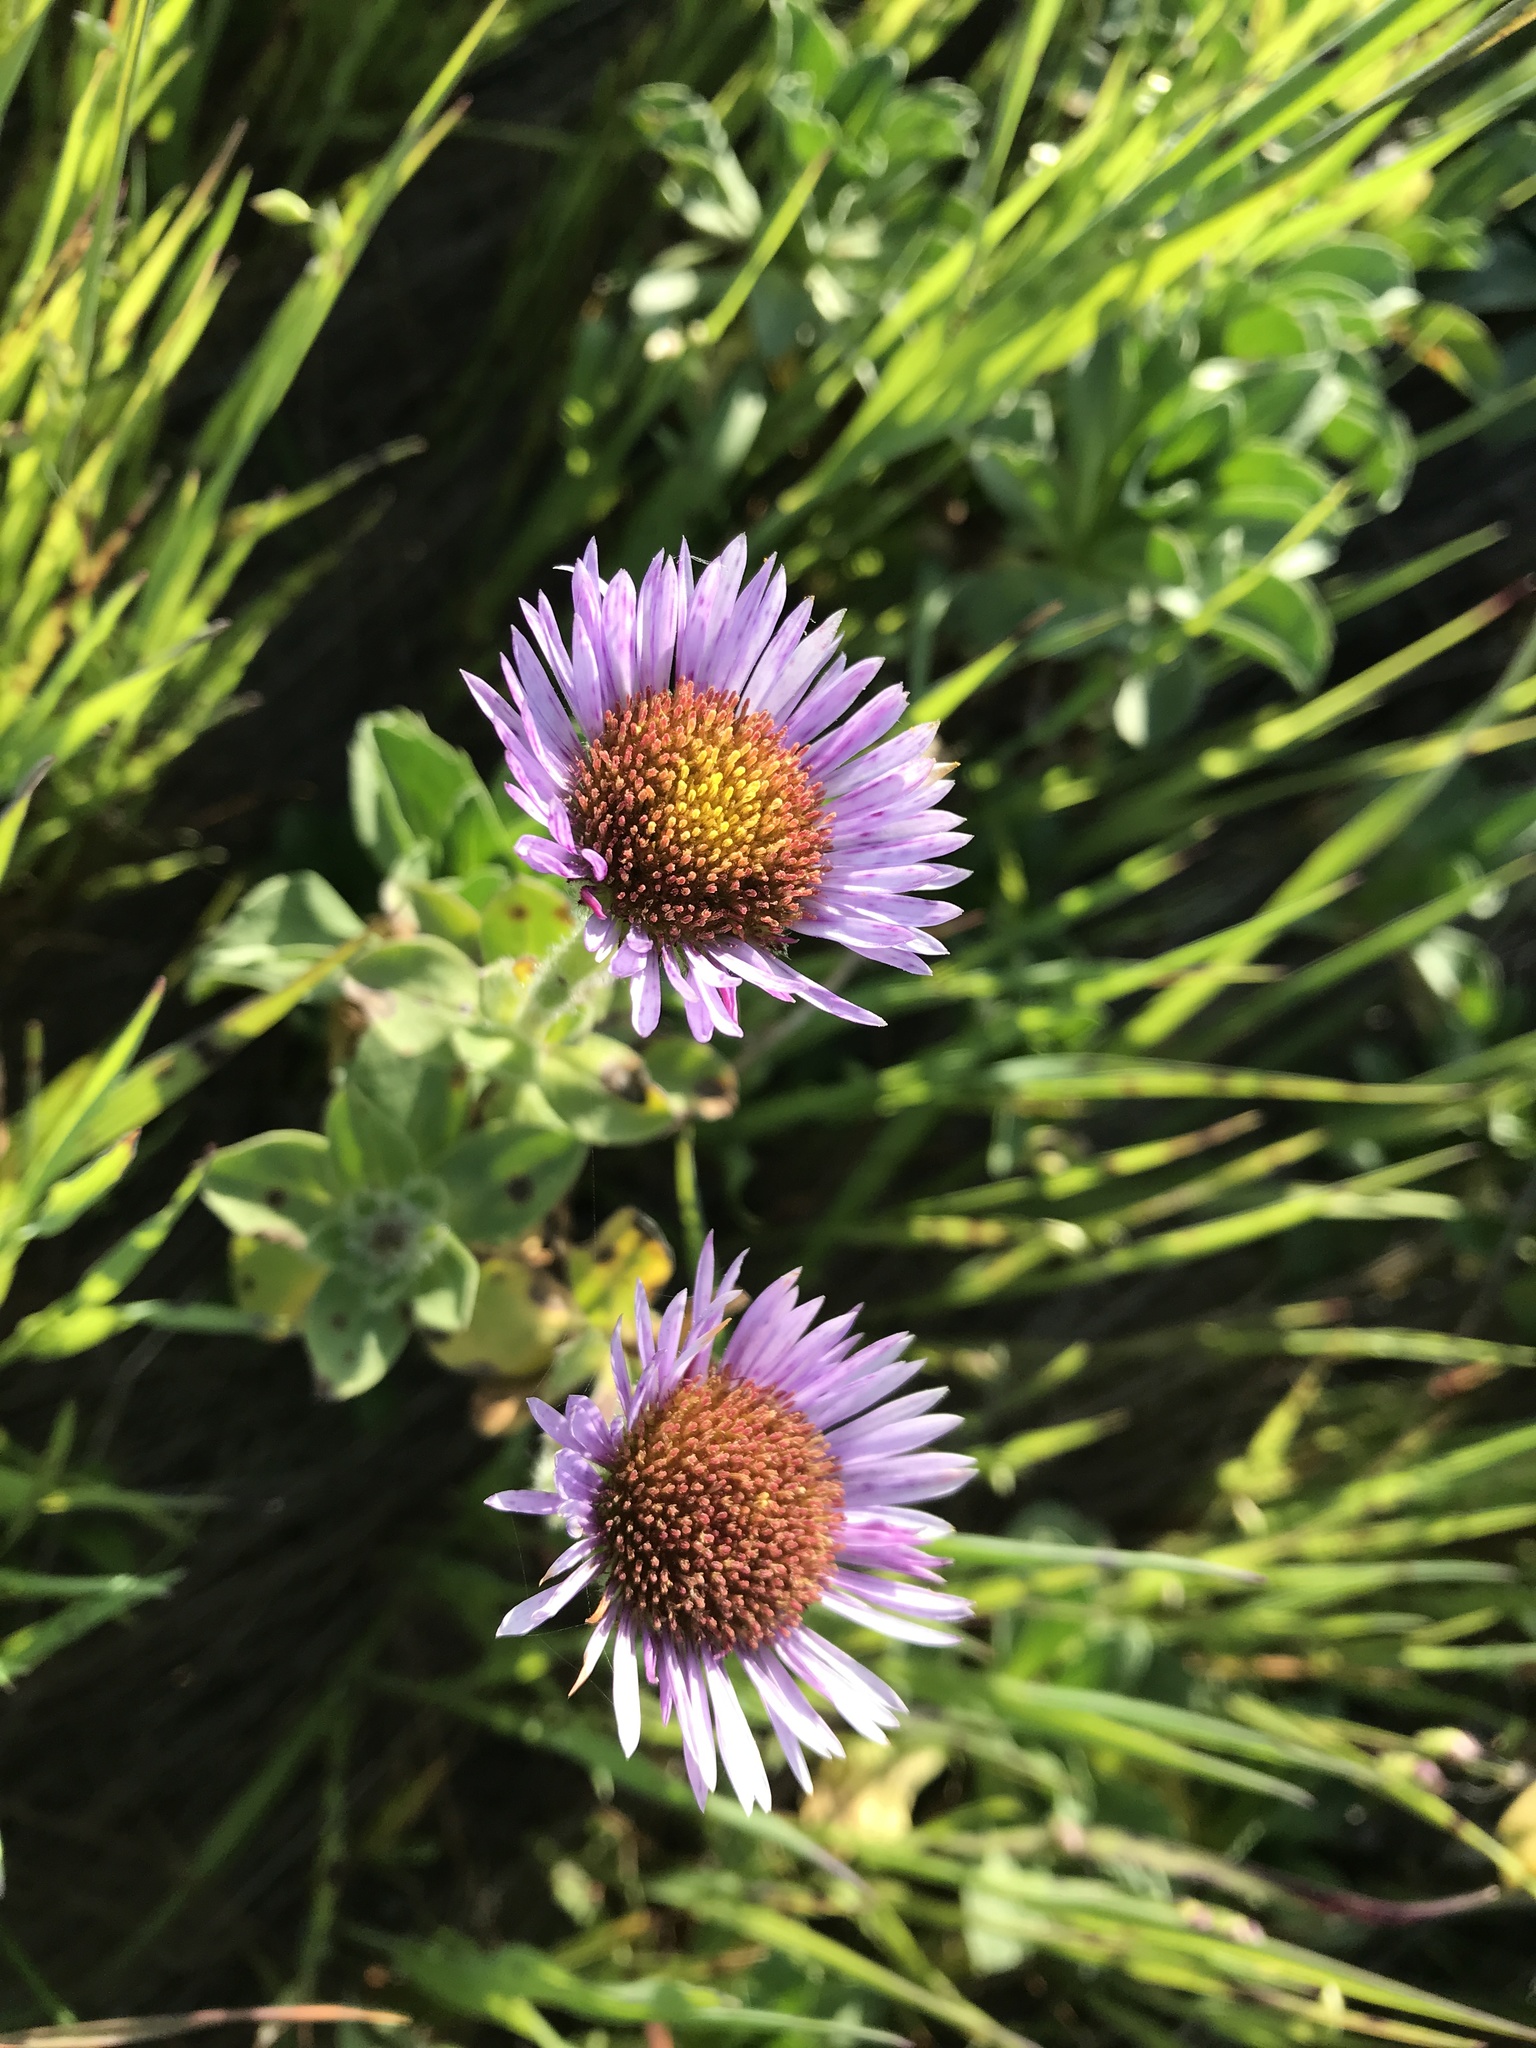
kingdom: Plantae
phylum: Tracheophyta
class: Magnoliopsida
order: Asterales
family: Asteraceae
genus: Erigeron
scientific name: Erigeron glaucus
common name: Seaside daisy
